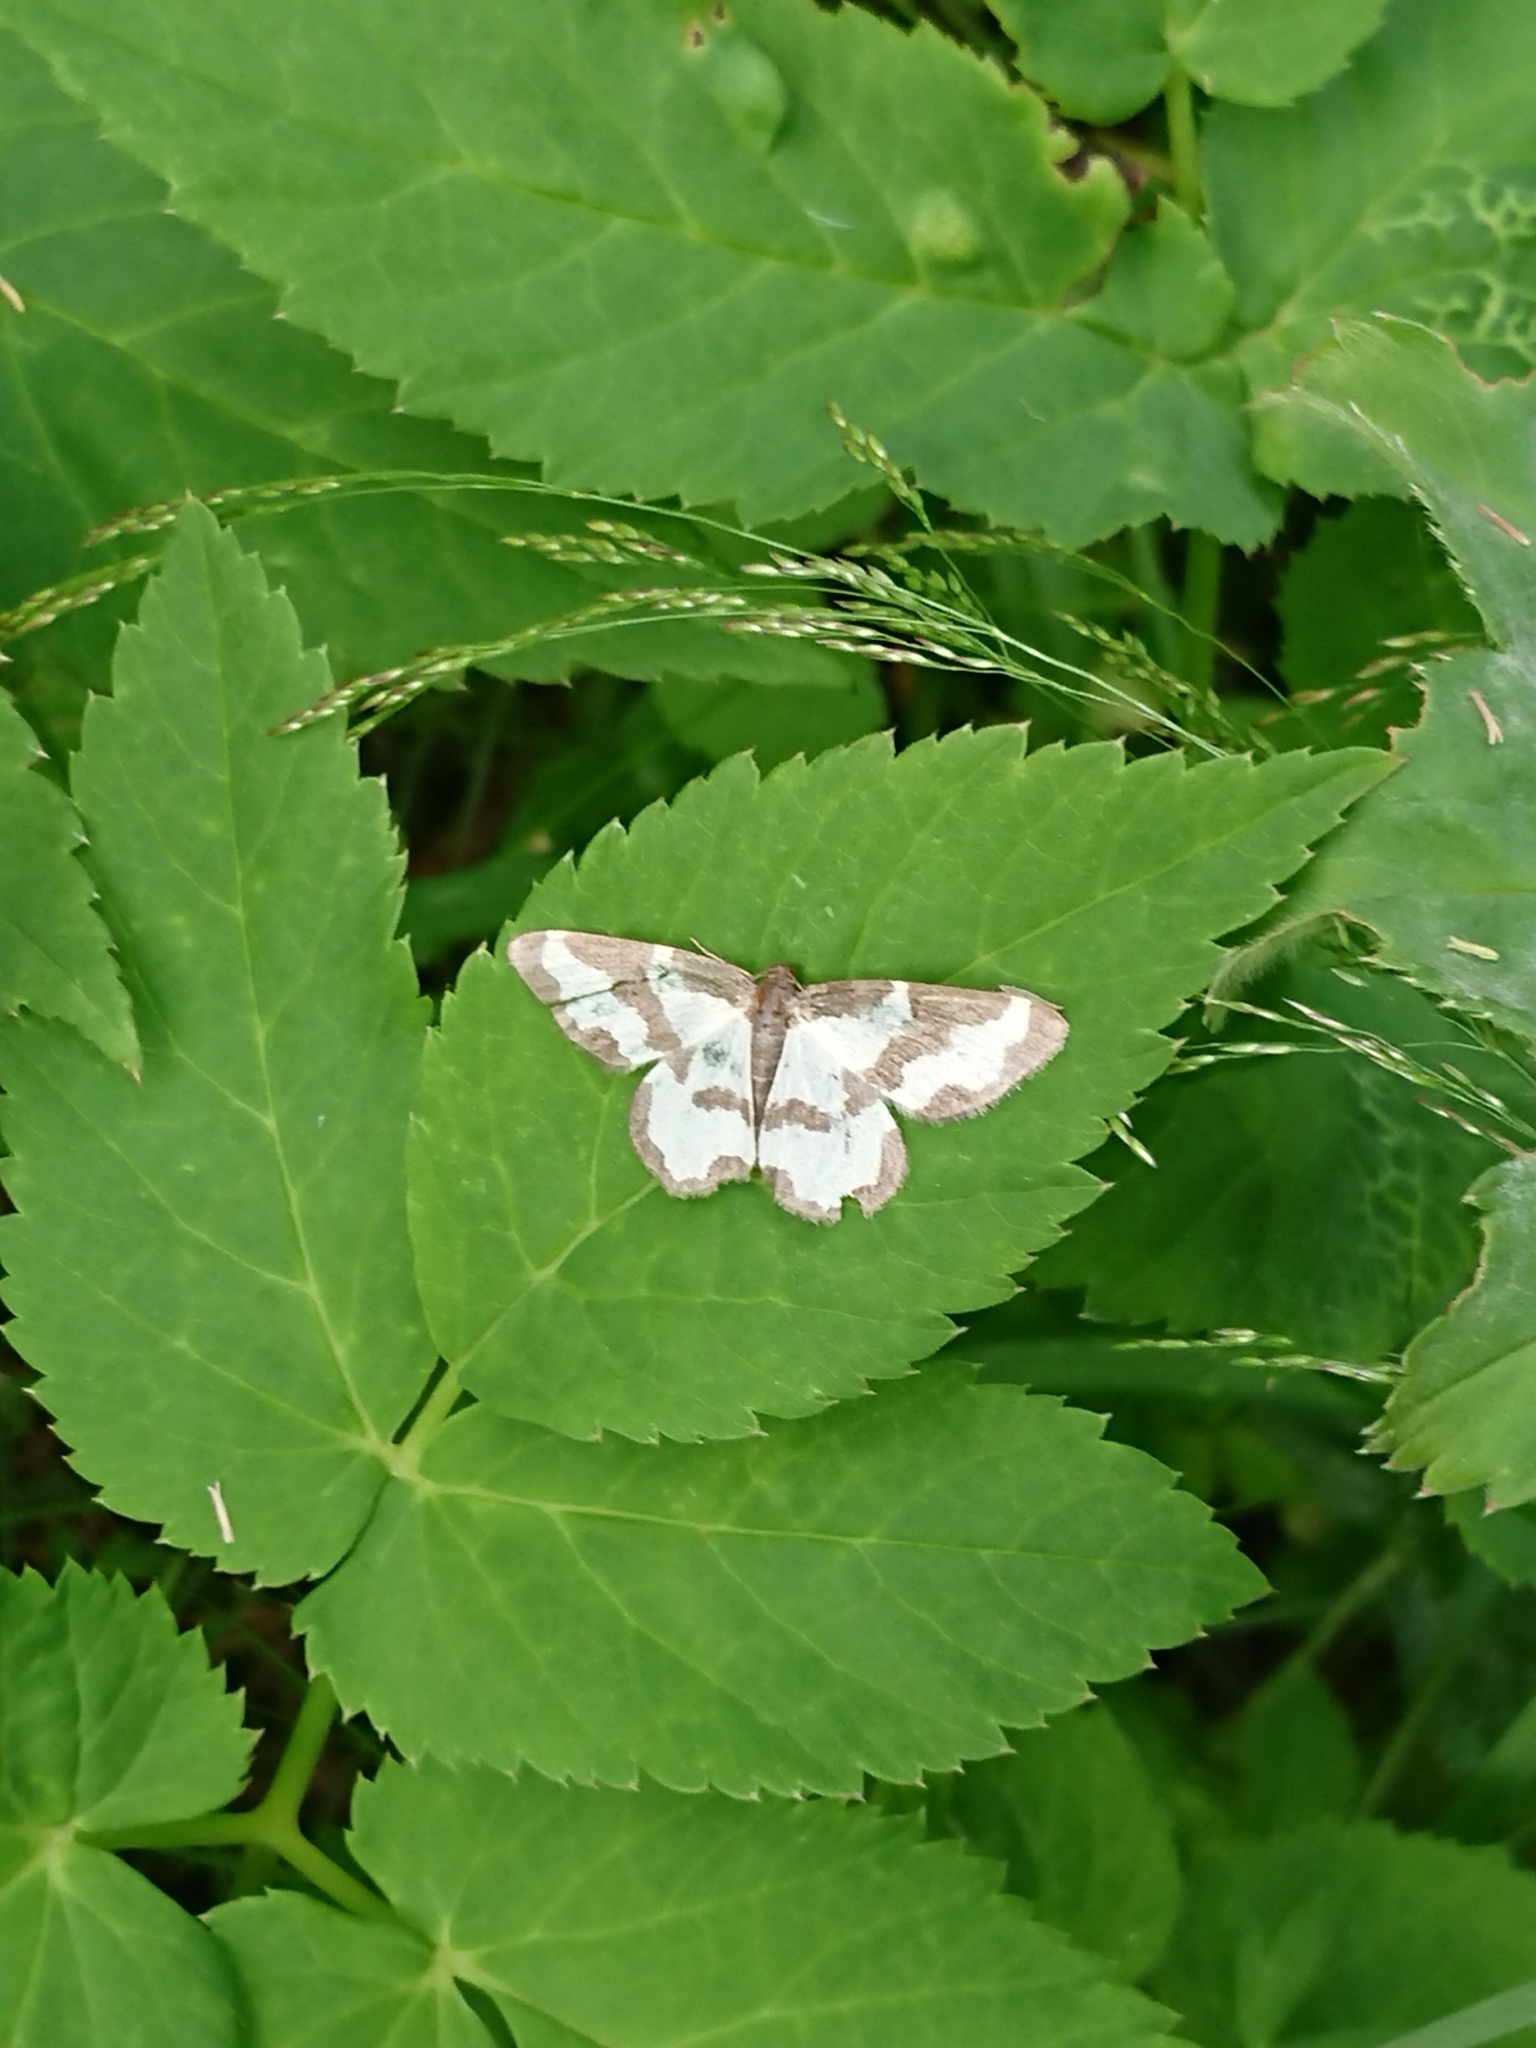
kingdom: Animalia
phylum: Arthropoda
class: Insecta
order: Lepidoptera
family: Geometridae
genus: Lomaspilis
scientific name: Lomaspilis marginata
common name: Clouded border
